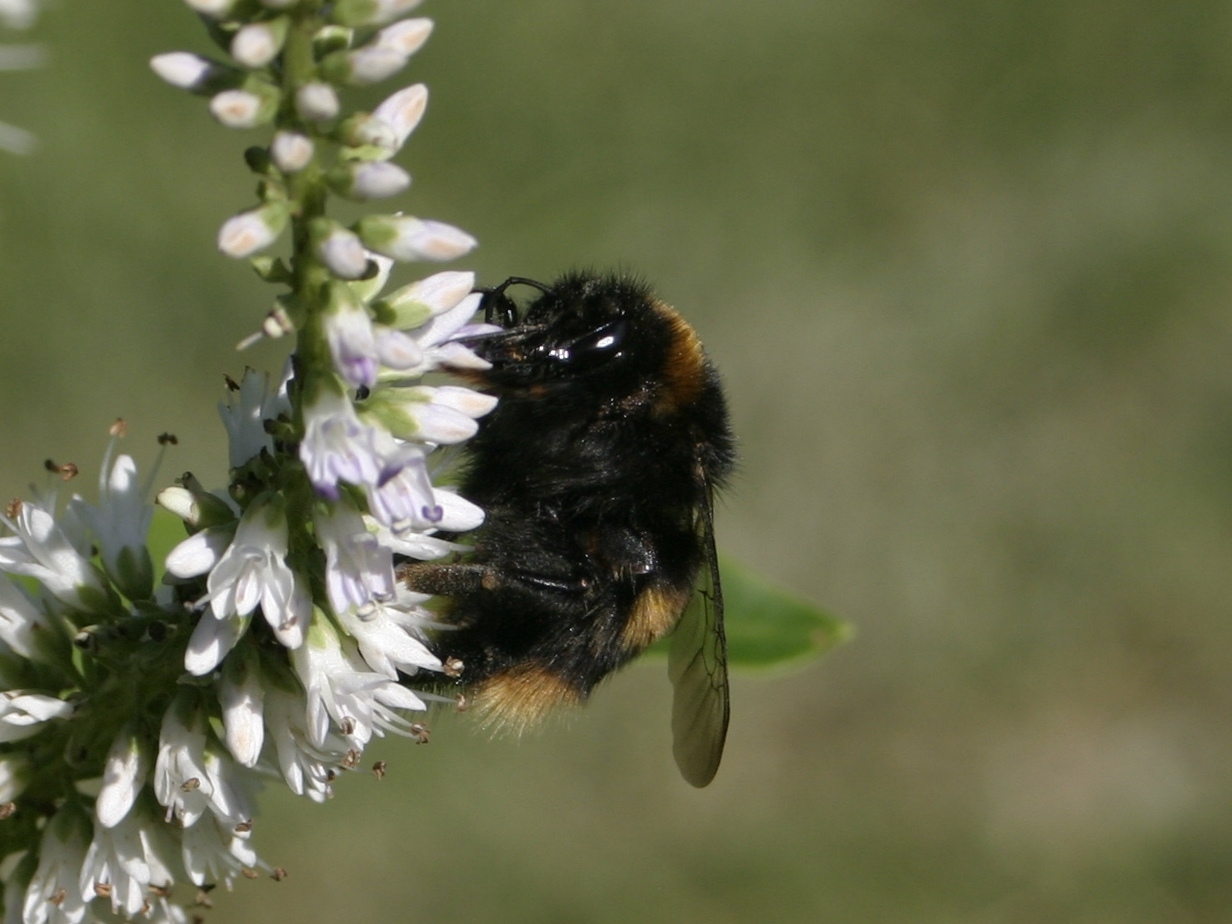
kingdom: Animalia
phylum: Arthropoda
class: Insecta
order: Hymenoptera
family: Apidae
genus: Bombus
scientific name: Bombus terrestris
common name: Buff-tailed bumblebee
